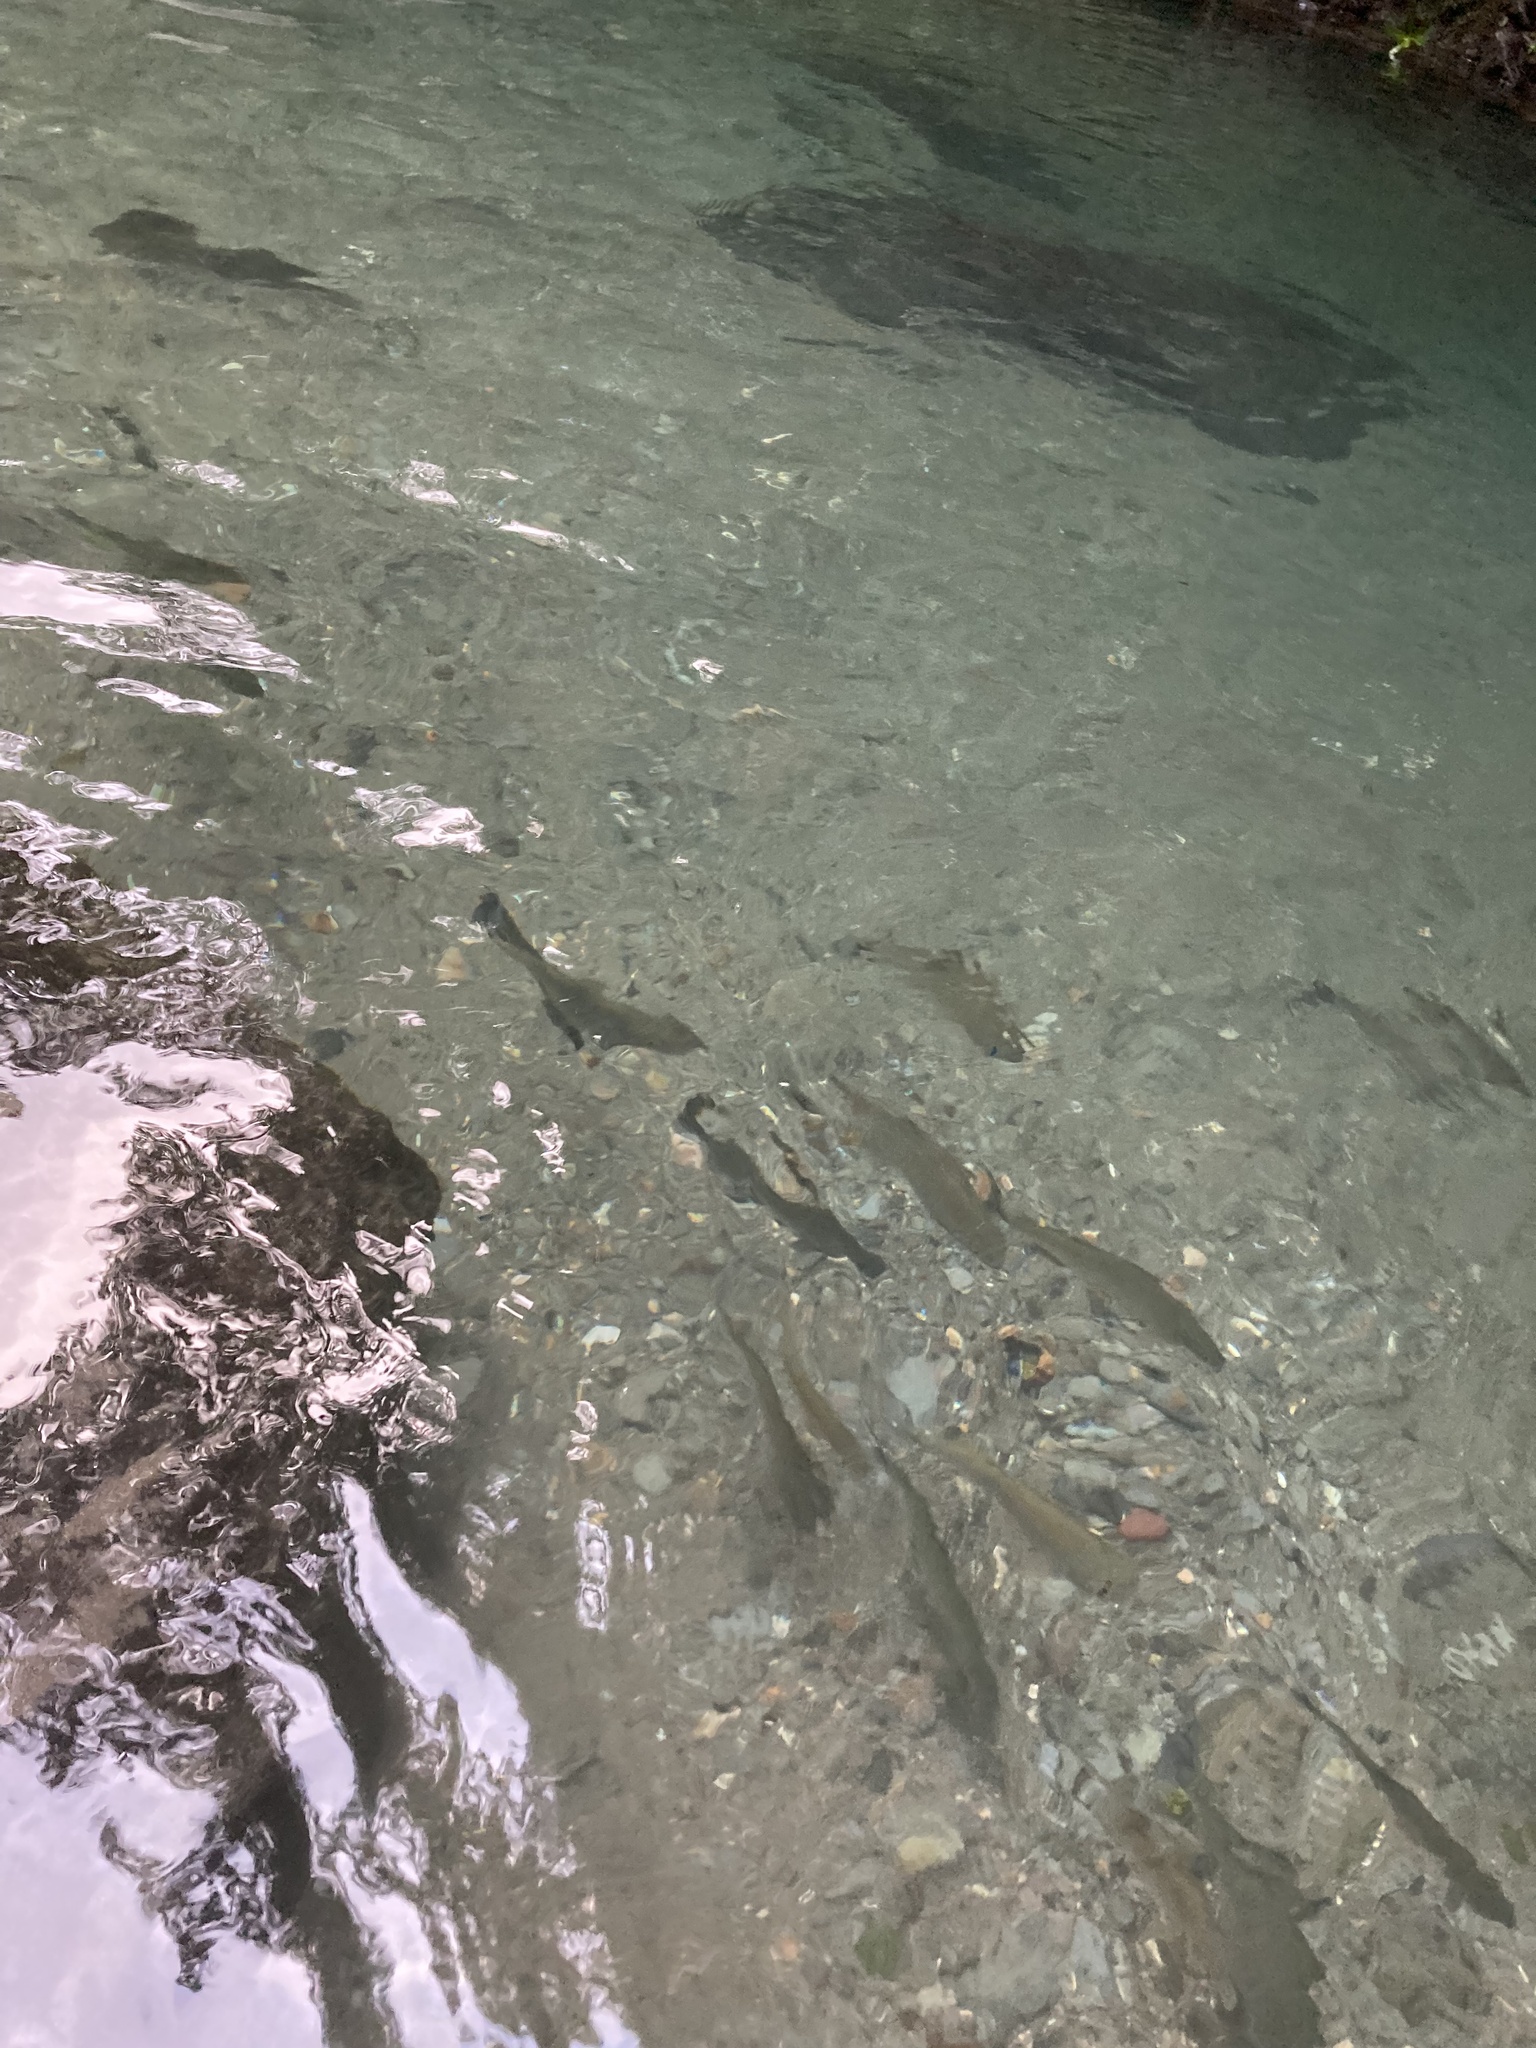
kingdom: Animalia
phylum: Chordata
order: Characiformes
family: Bryconidae
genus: Brycon
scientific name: Brycon costaricensis
